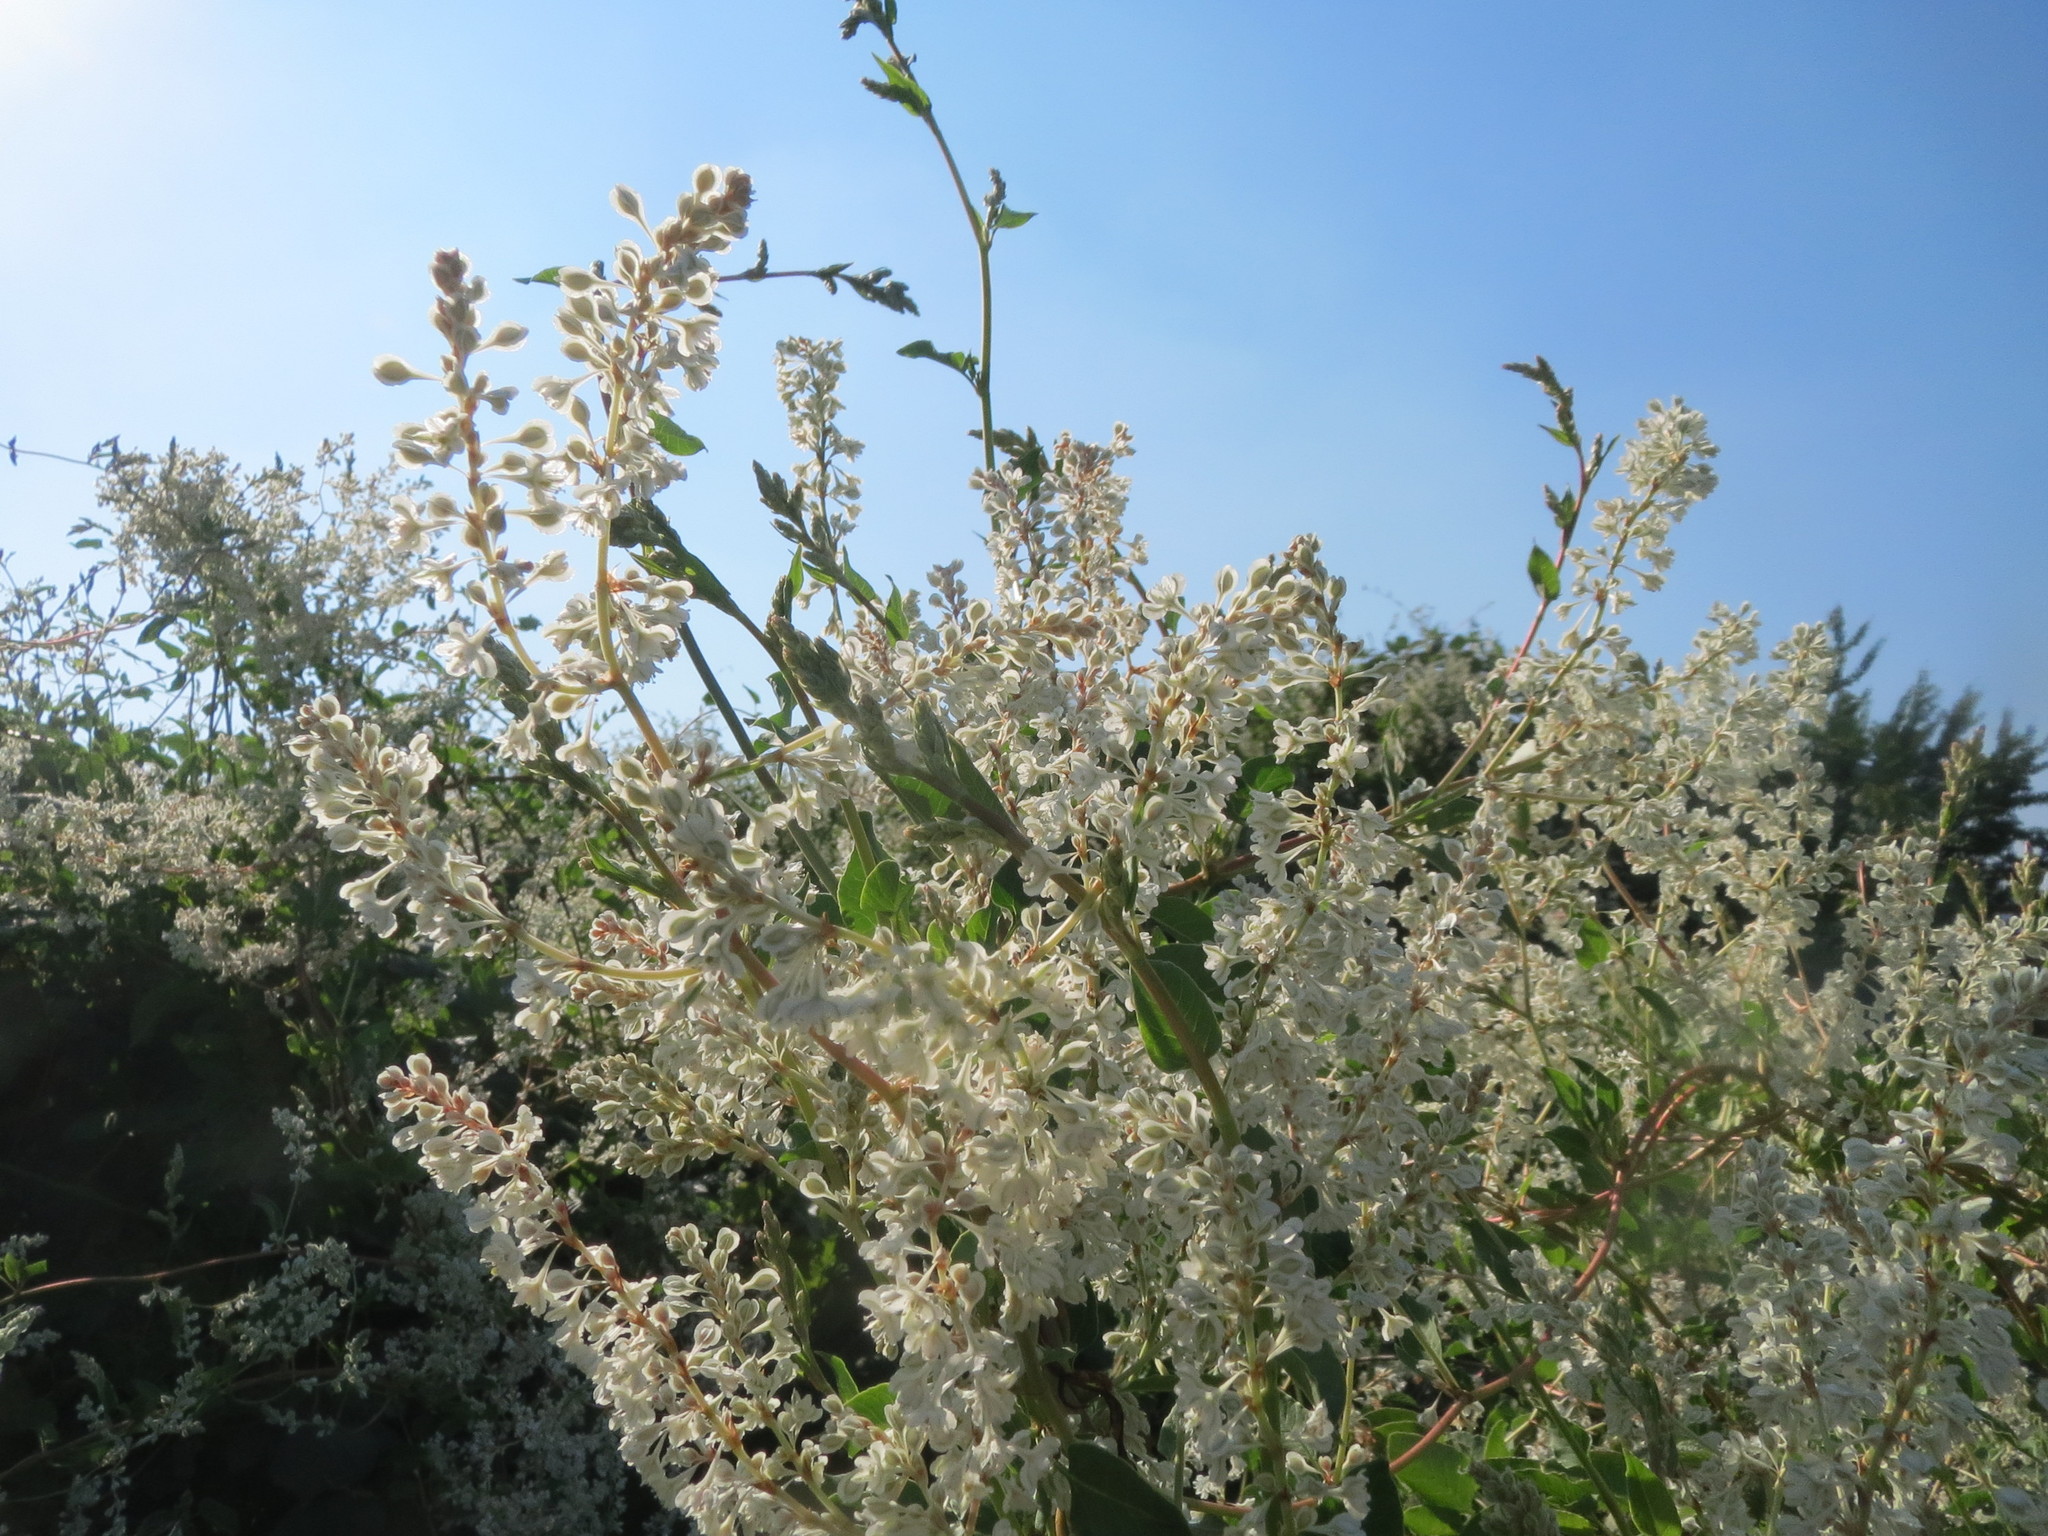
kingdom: Plantae
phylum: Tracheophyta
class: Magnoliopsida
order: Caryophyllales
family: Polygonaceae
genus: Fallopia
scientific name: Fallopia baldschuanica
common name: Russian-vine
